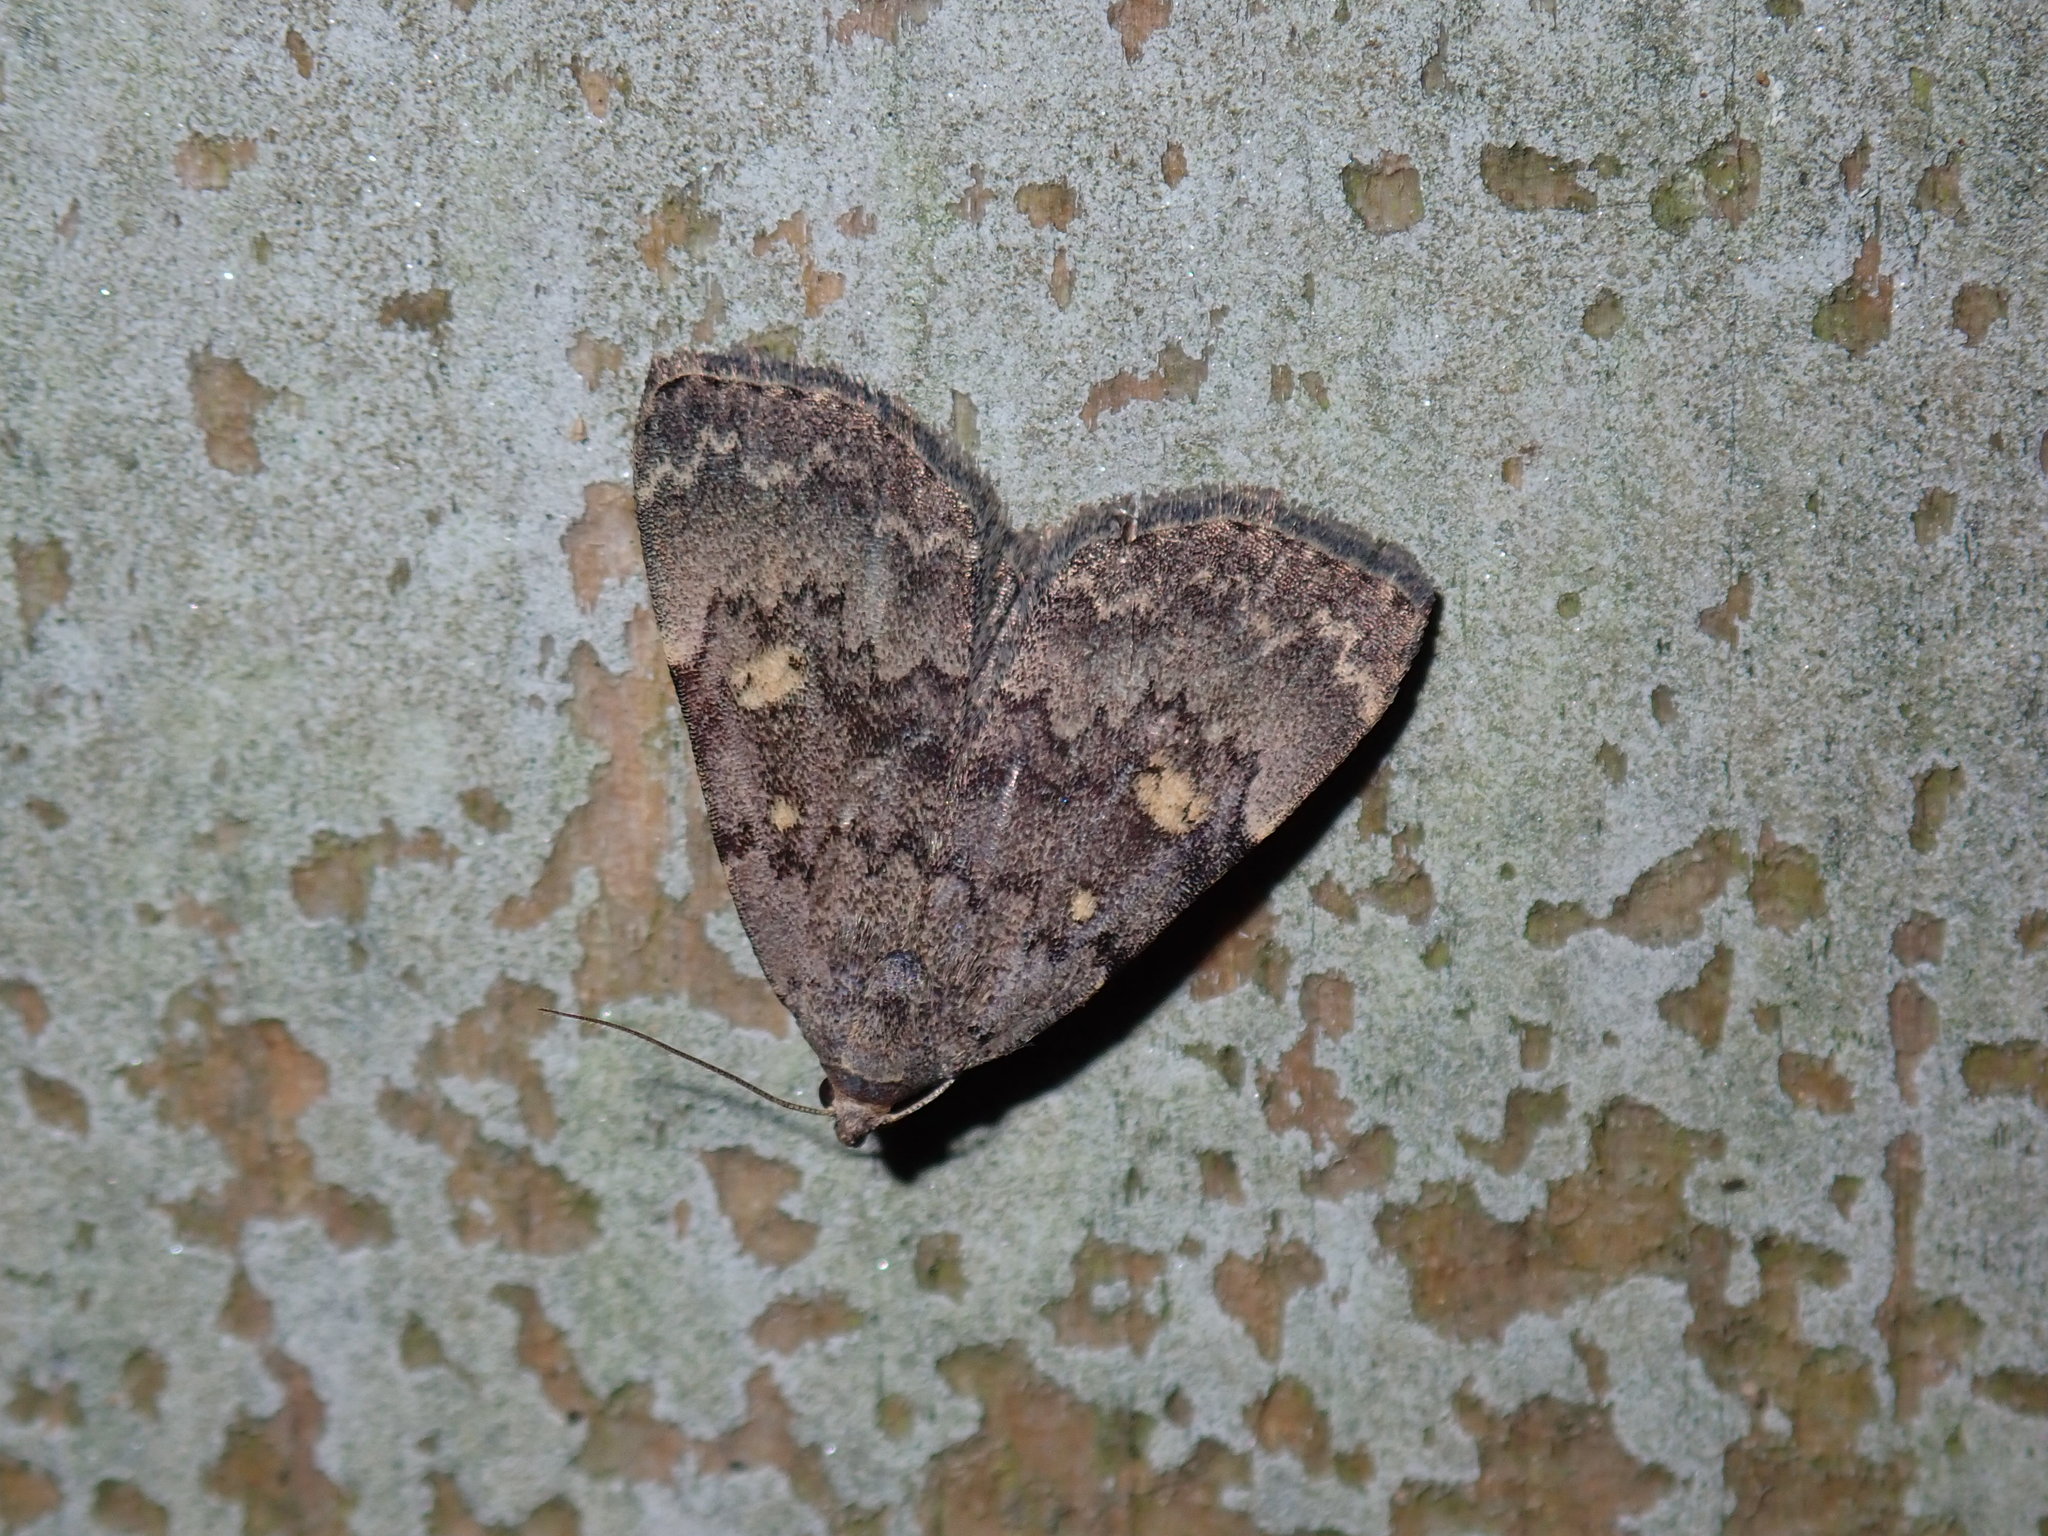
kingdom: Animalia
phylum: Arthropoda
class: Insecta
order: Lepidoptera
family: Erebidae
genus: Idia
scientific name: Idia aemula
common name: Common idia moth
